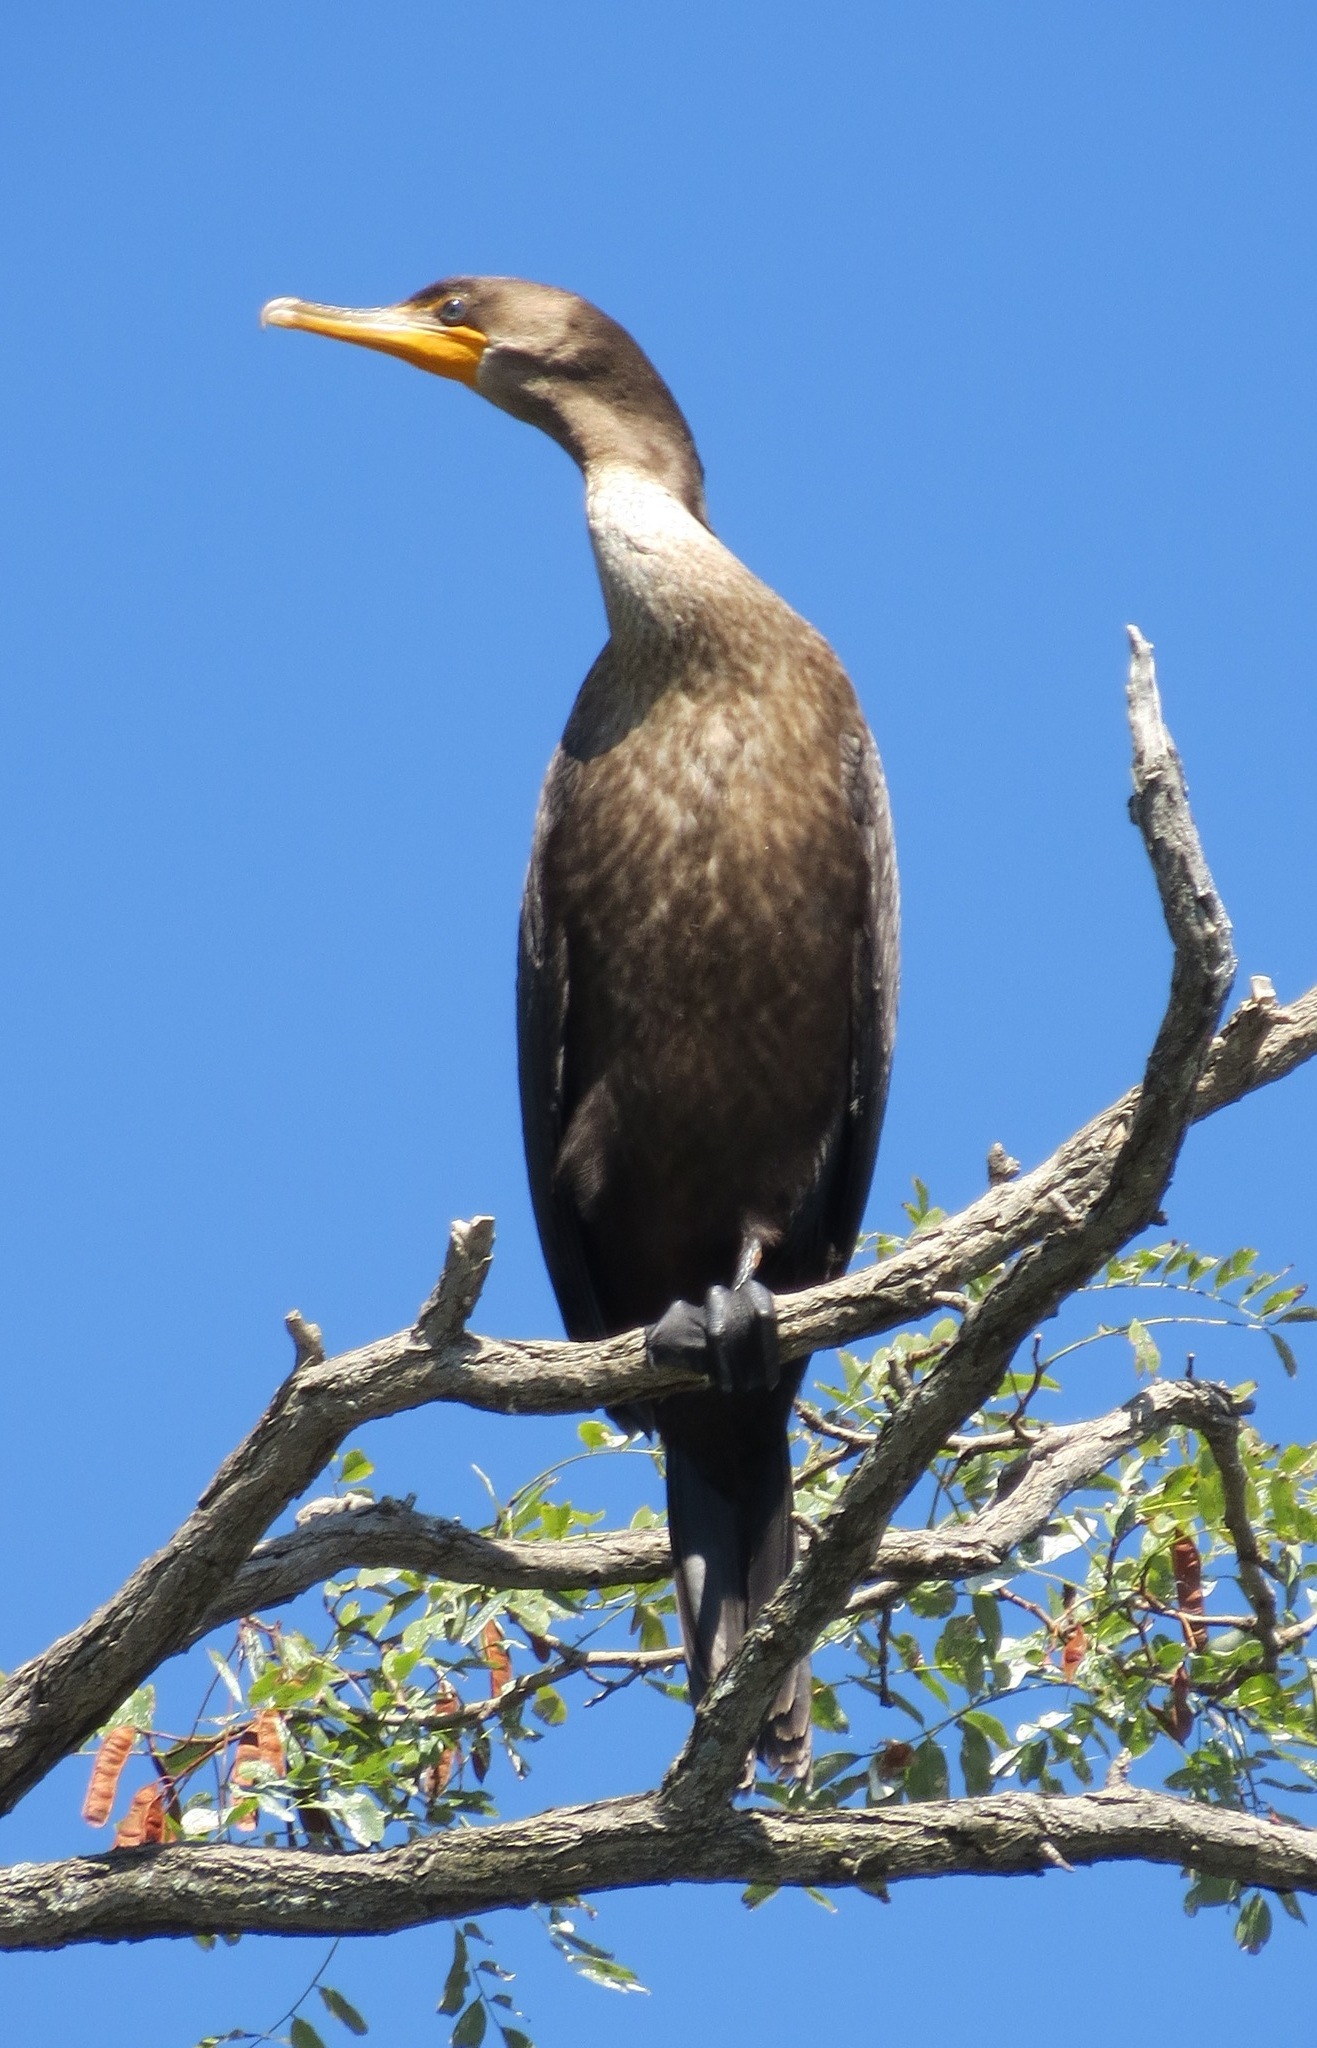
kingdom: Animalia
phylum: Chordata
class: Aves
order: Suliformes
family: Phalacrocoracidae
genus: Phalacrocorax
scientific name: Phalacrocorax auritus
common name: Double-crested cormorant
